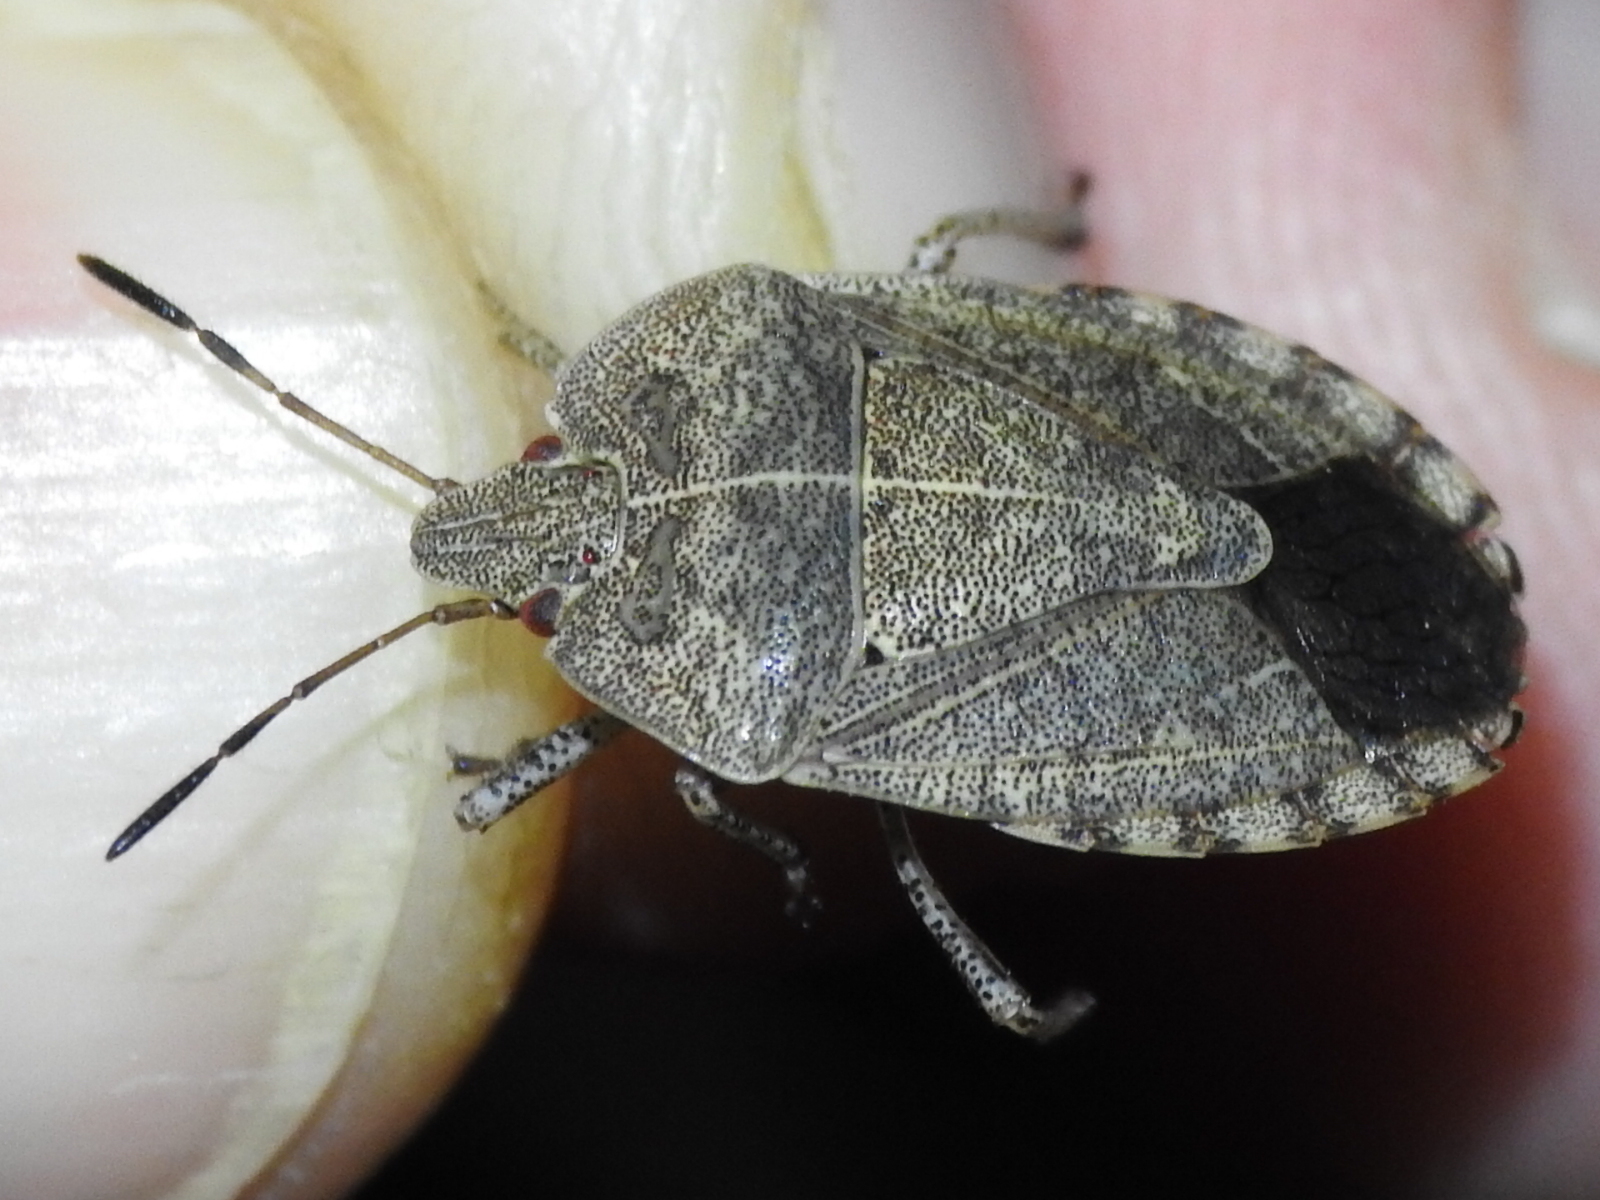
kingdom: Animalia
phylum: Arthropoda
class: Insecta
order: Hemiptera
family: Pentatomidae
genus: Menecles
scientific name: Menecles insertus
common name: Elf shoe stink bug
